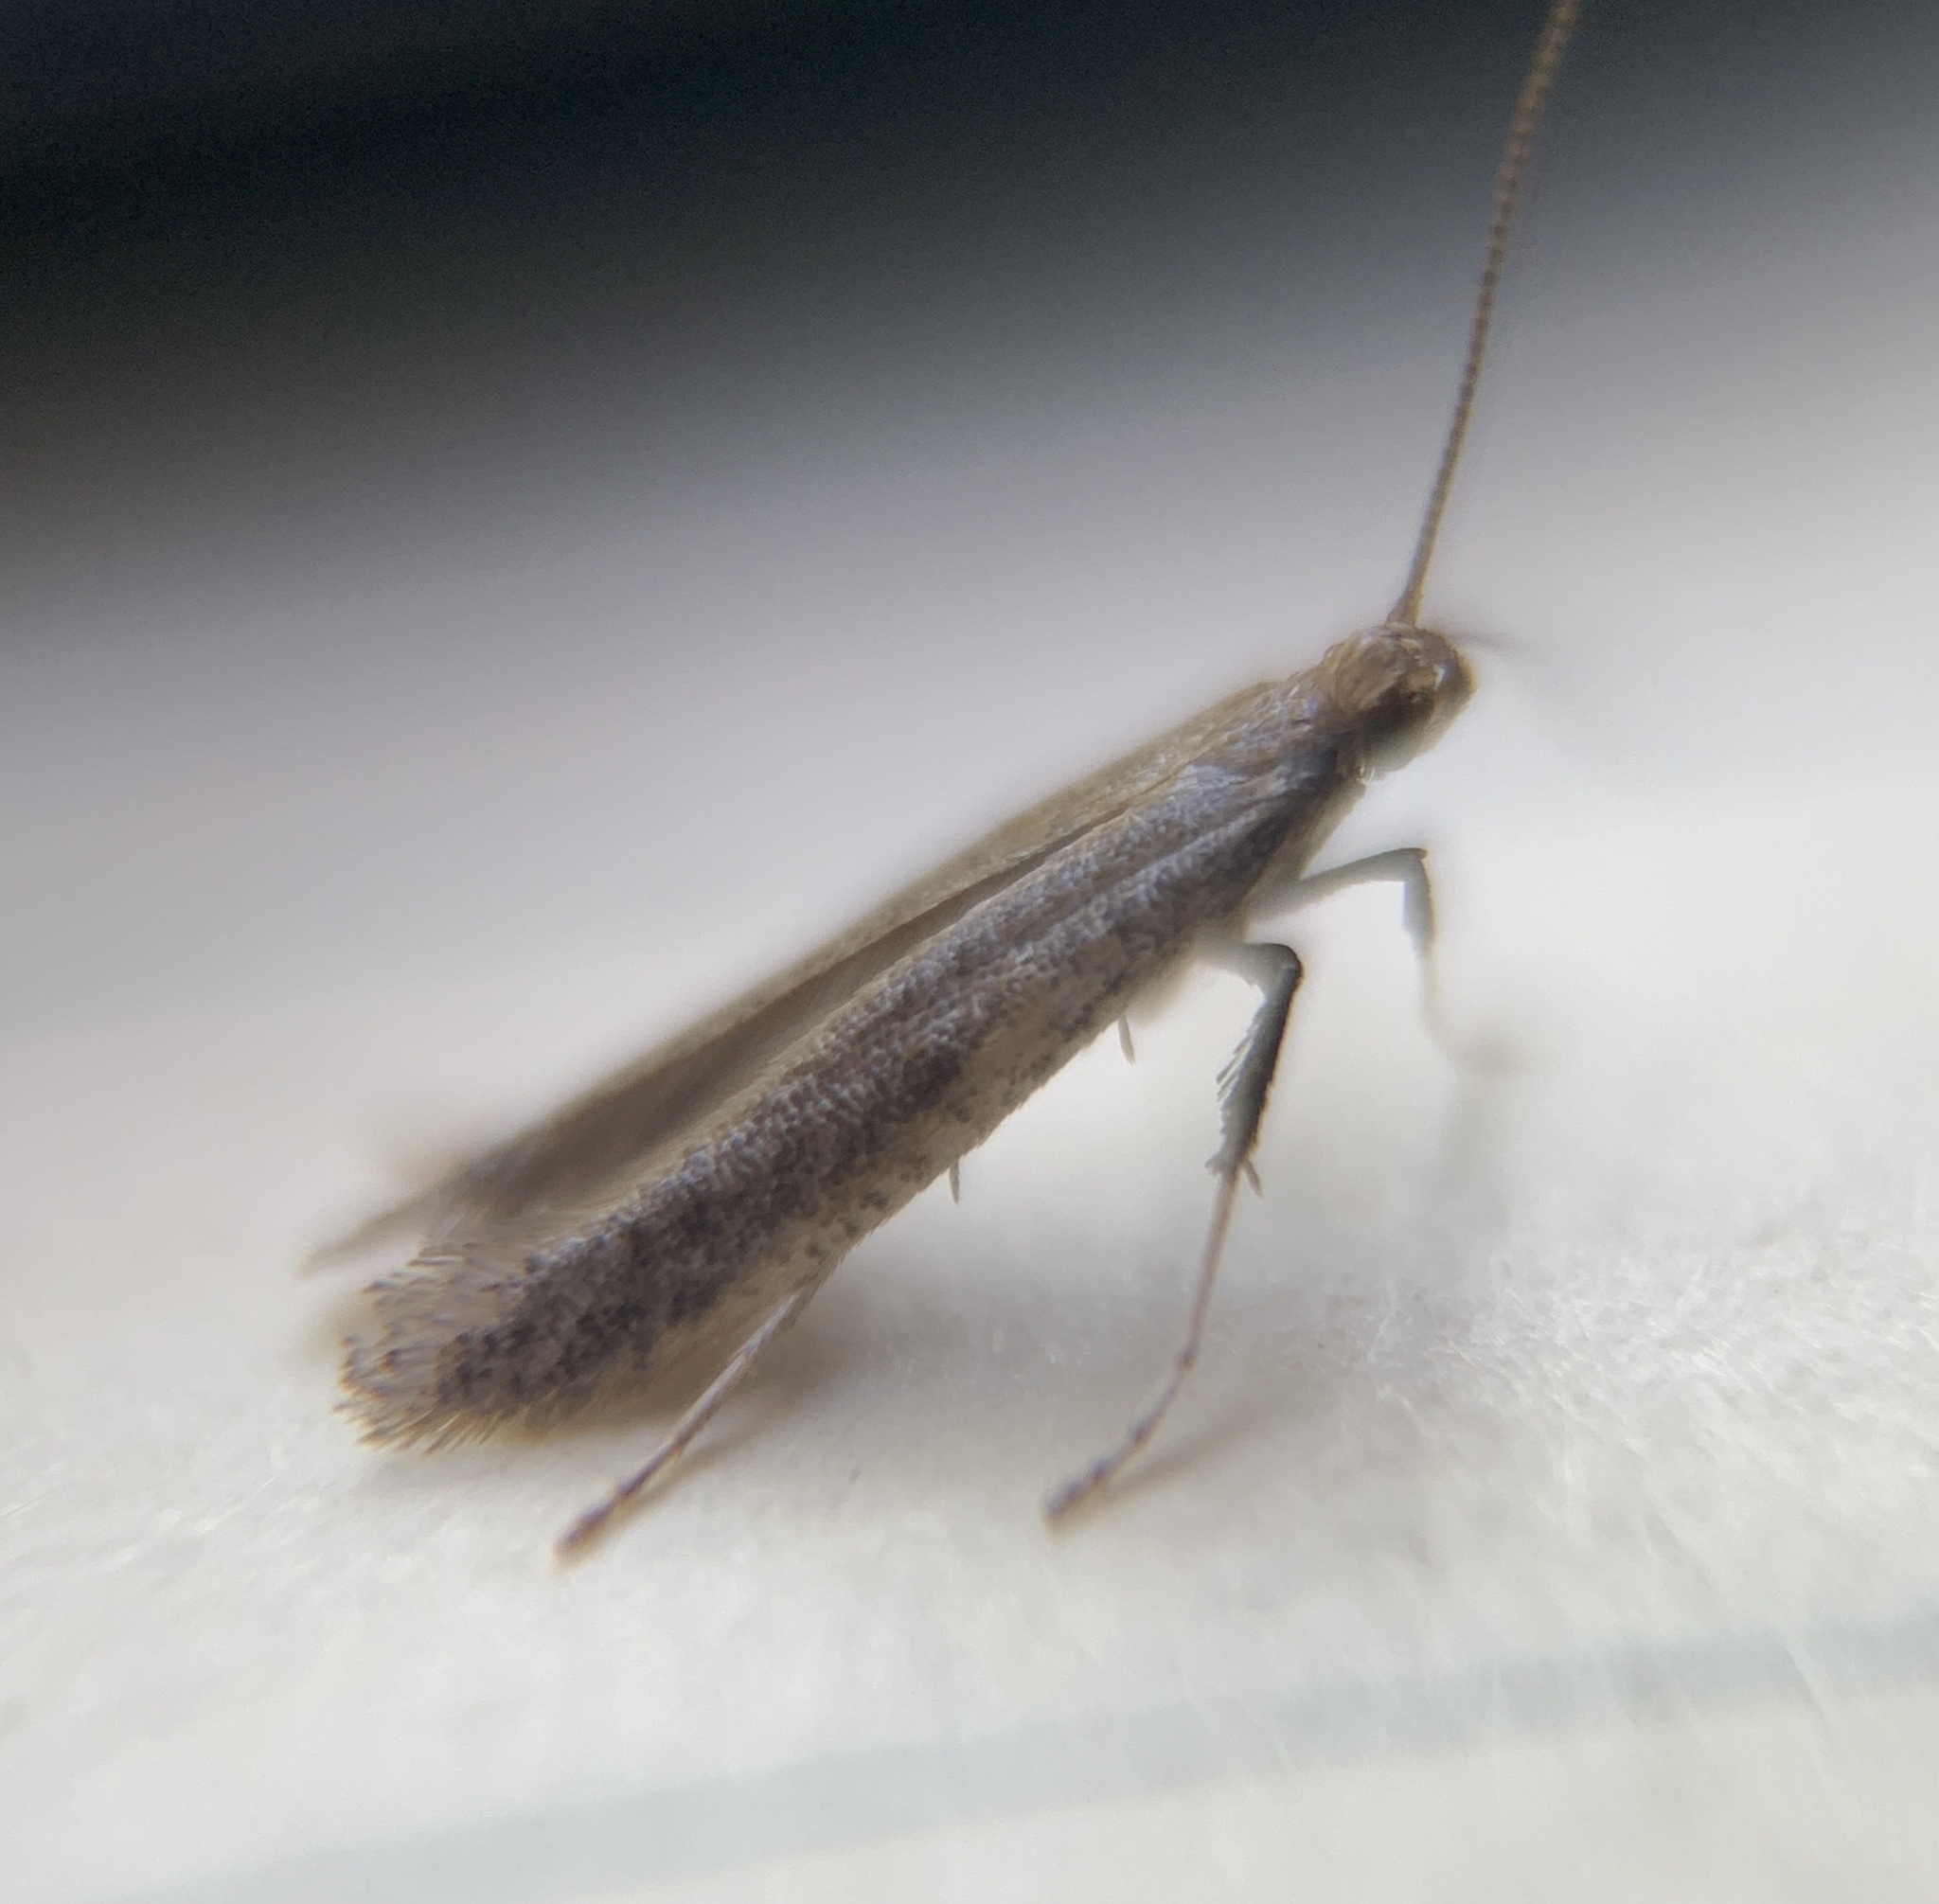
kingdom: Animalia
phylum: Arthropoda
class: Insecta
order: Lepidoptera
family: Gracillariidae
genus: Caloptilia
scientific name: Caloptilia hypericella
